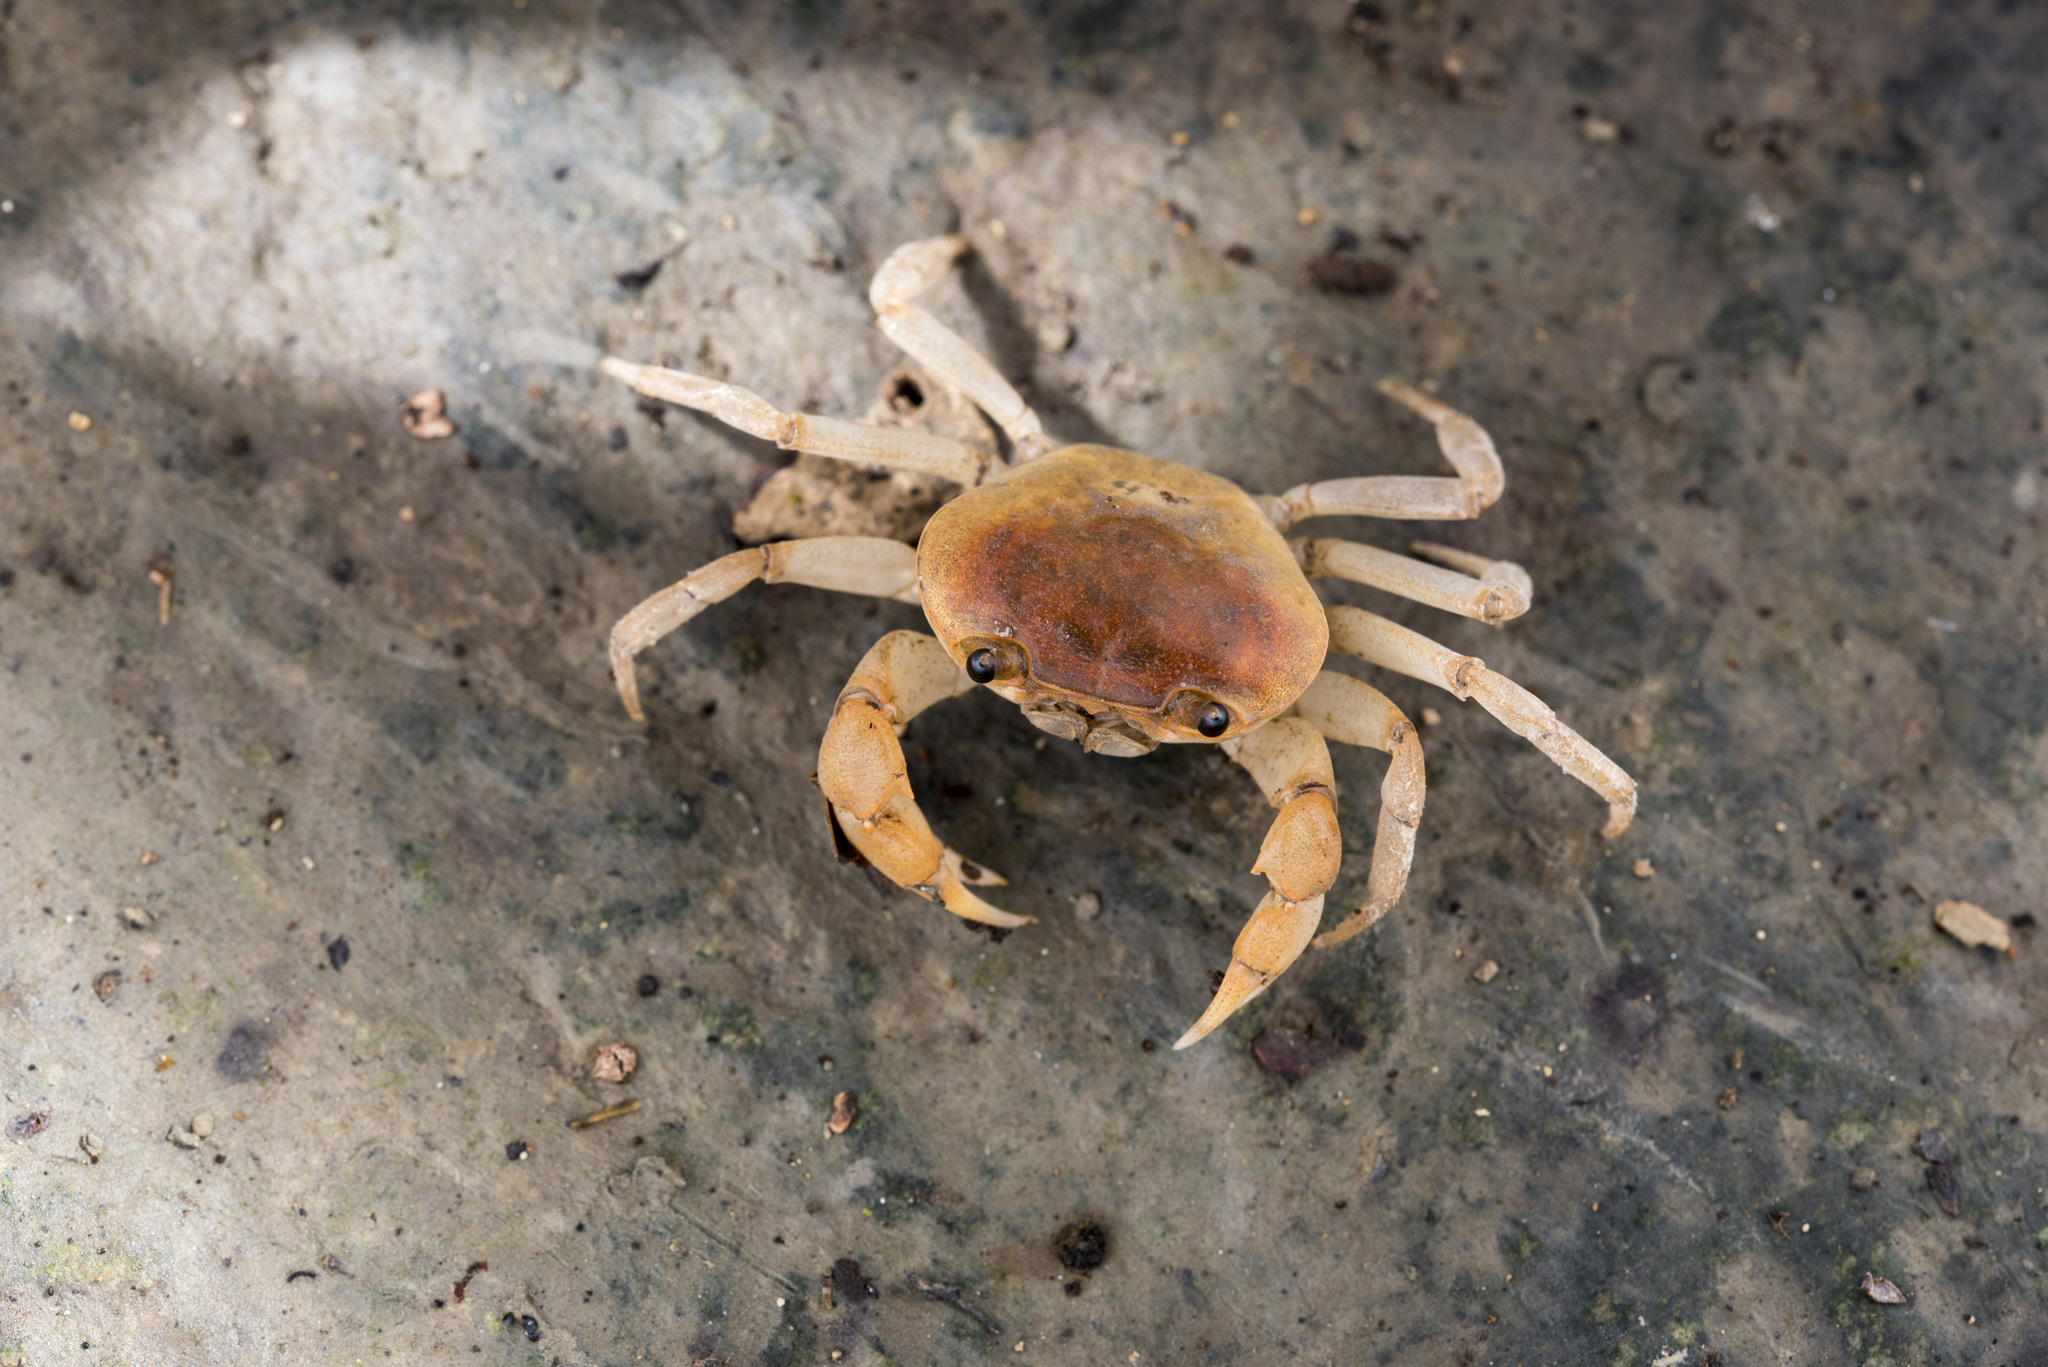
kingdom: Animalia
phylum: Arthropoda
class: Malacostraca
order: Decapoda
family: Potamidae
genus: Geothelphusa
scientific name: Geothelphusa makatao
